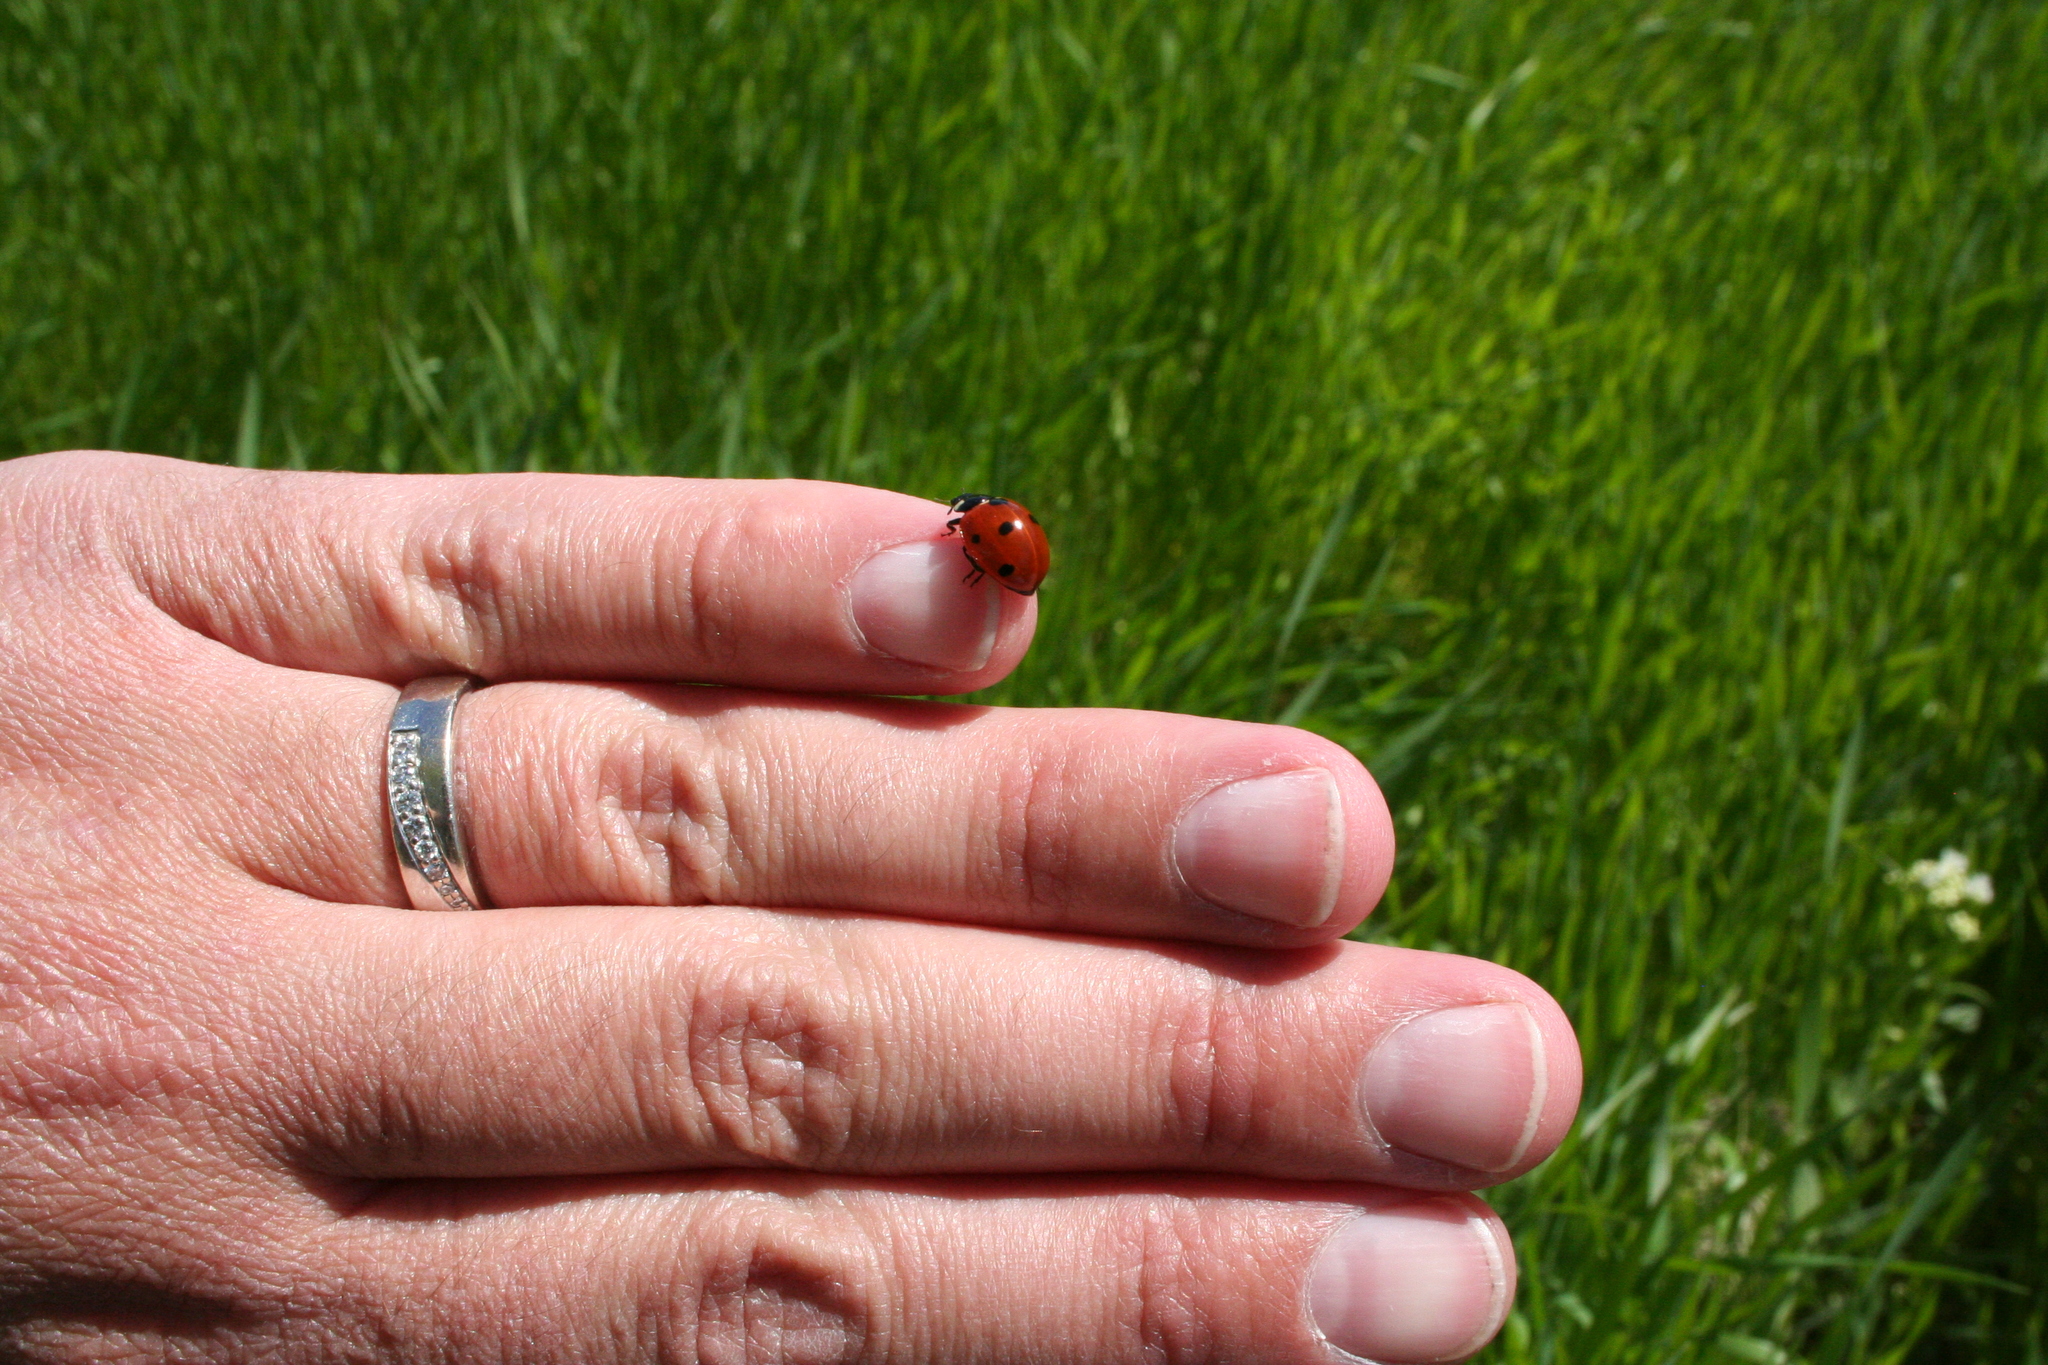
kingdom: Animalia
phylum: Arthropoda
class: Insecta
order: Coleoptera
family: Coccinellidae
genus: Coccinella
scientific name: Coccinella septempunctata
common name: Sevenspotted lady beetle
